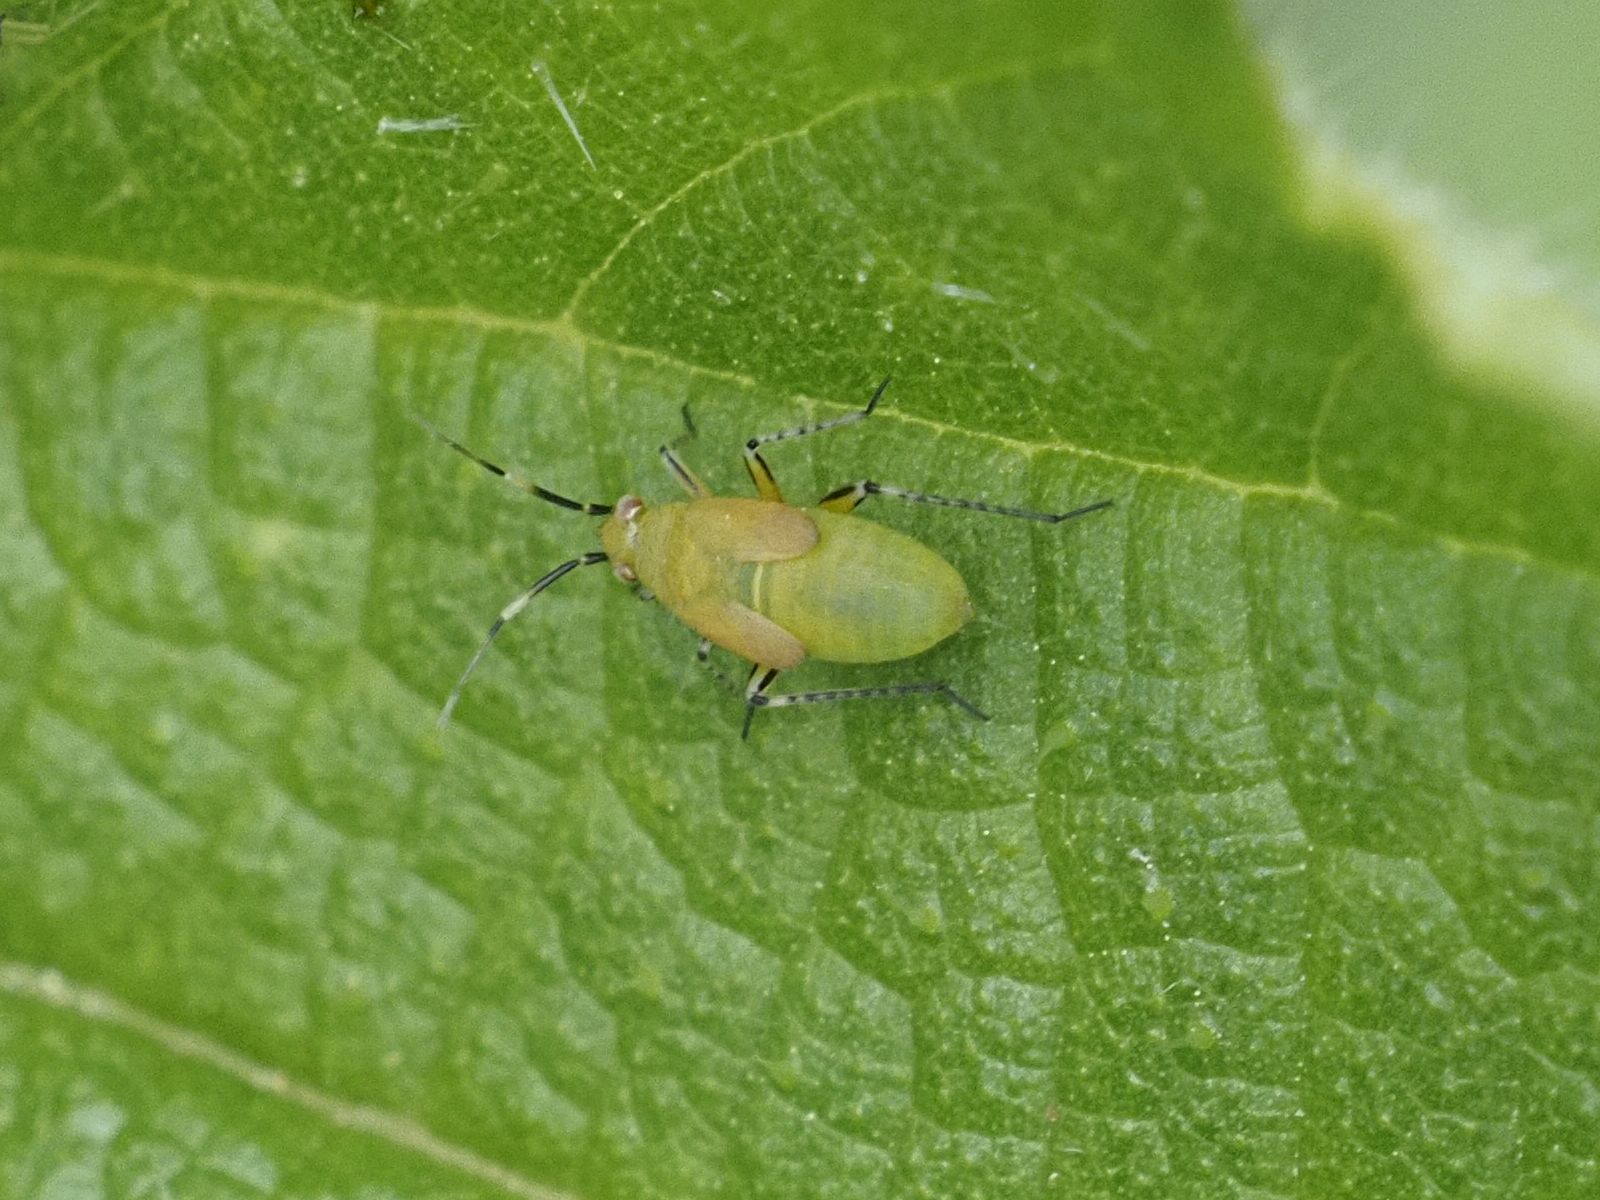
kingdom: Animalia
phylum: Arthropoda
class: Insecta
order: Hemiptera
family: Miridae
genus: Plagiognathus
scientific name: Plagiognathus arbustorum
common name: Plant bug
